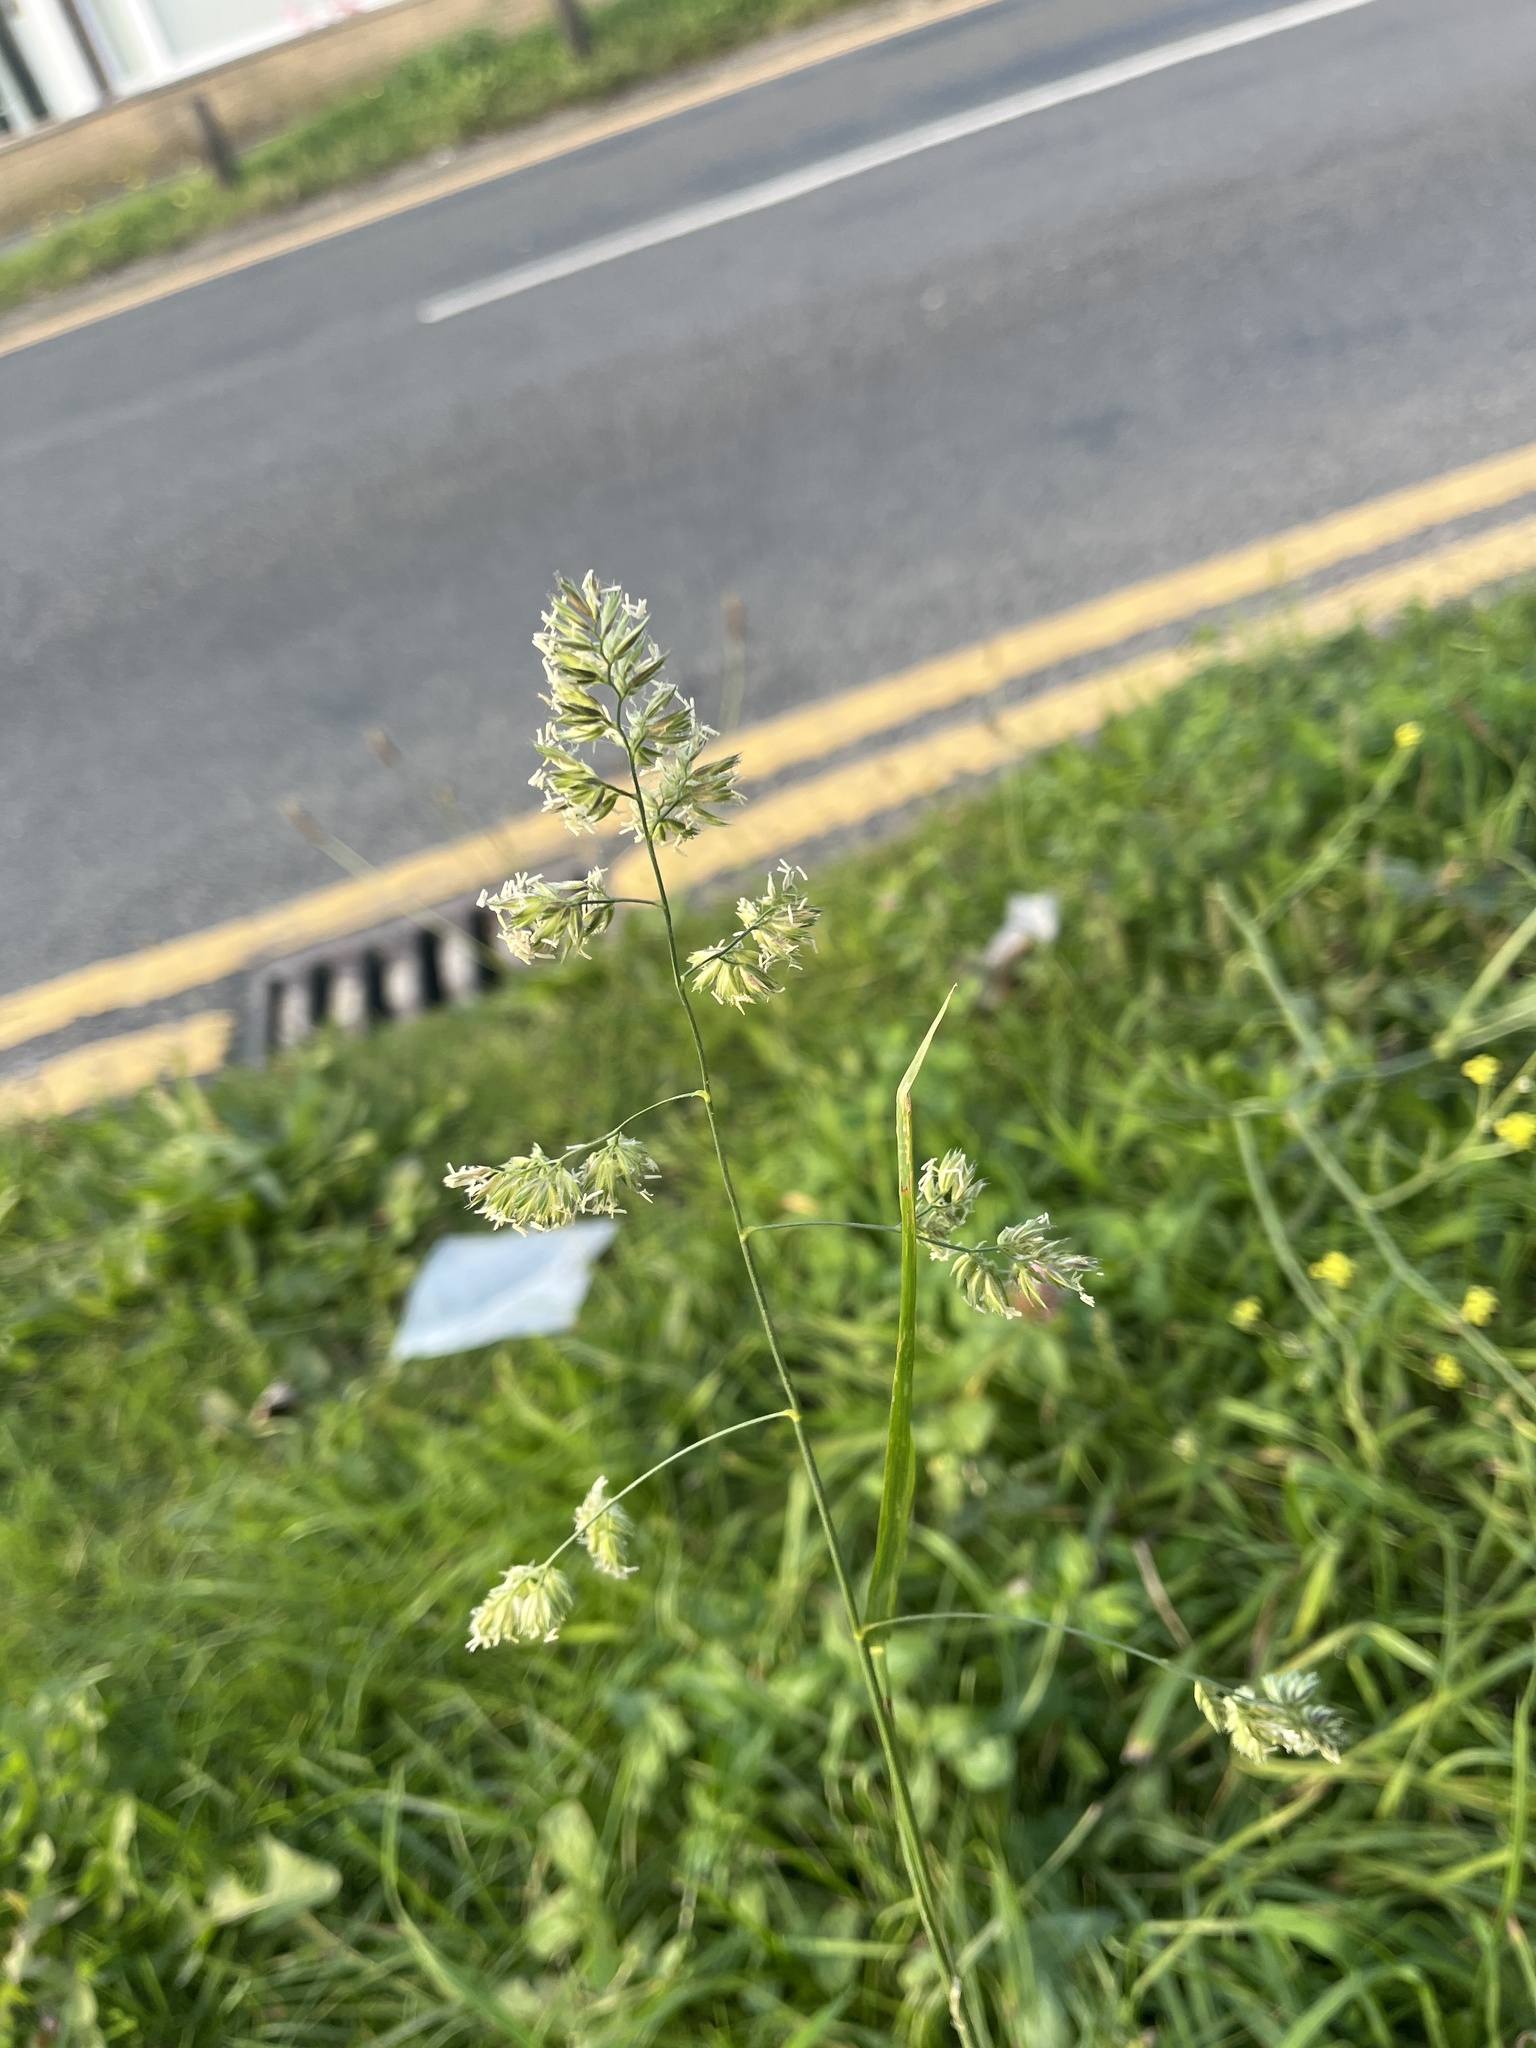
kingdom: Plantae
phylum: Tracheophyta
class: Liliopsida
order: Poales
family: Poaceae
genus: Dactylis
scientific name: Dactylis glomerata
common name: Orchardgrass
